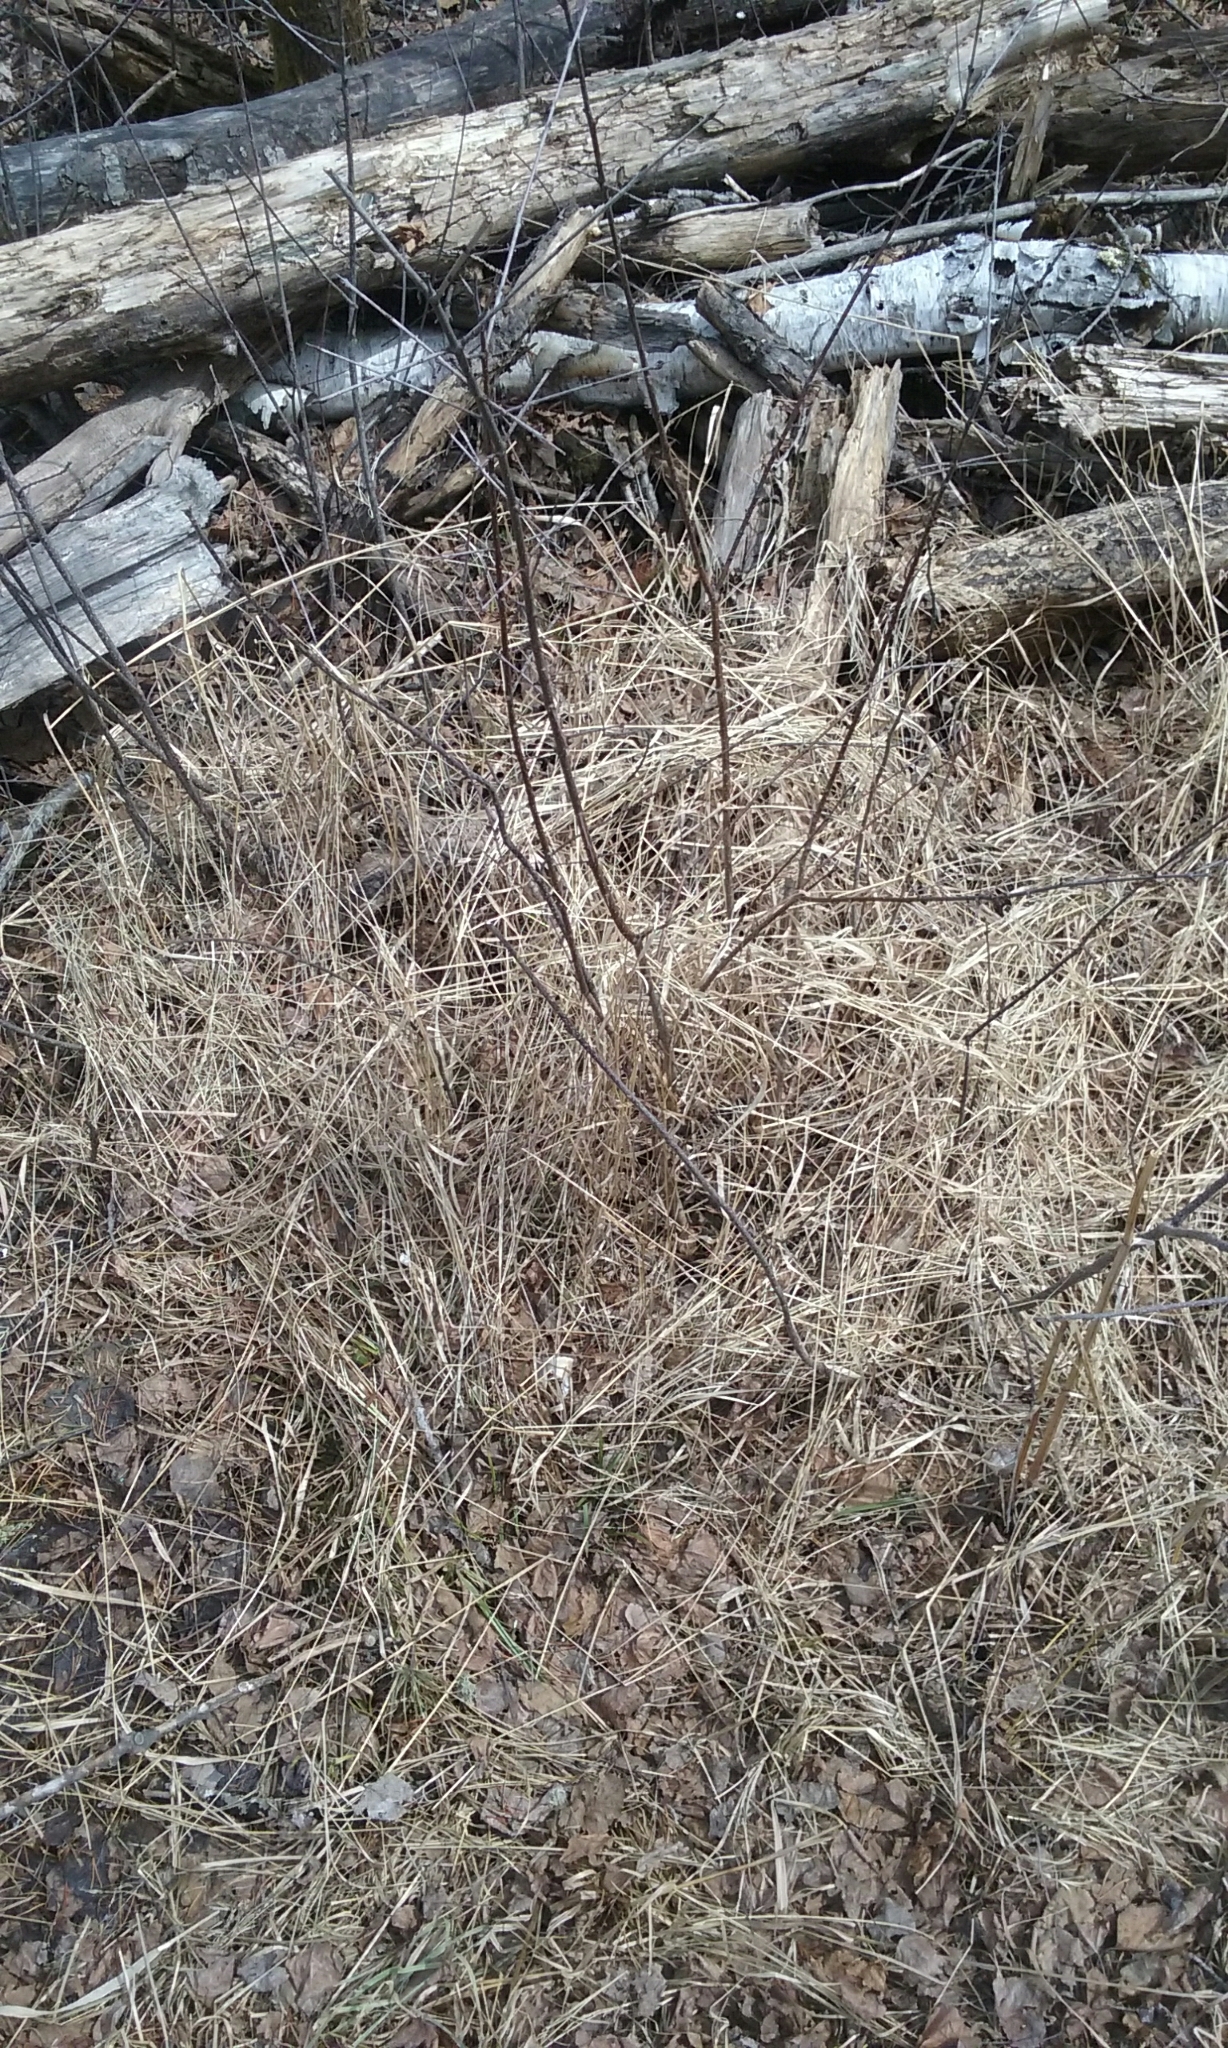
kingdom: Plantae
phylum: Tracheophyta
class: Magnoliopsida
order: Rosales
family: Rhamnaceae
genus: Rhamnus
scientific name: Rhamnus cathartica
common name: Common buckthorn
